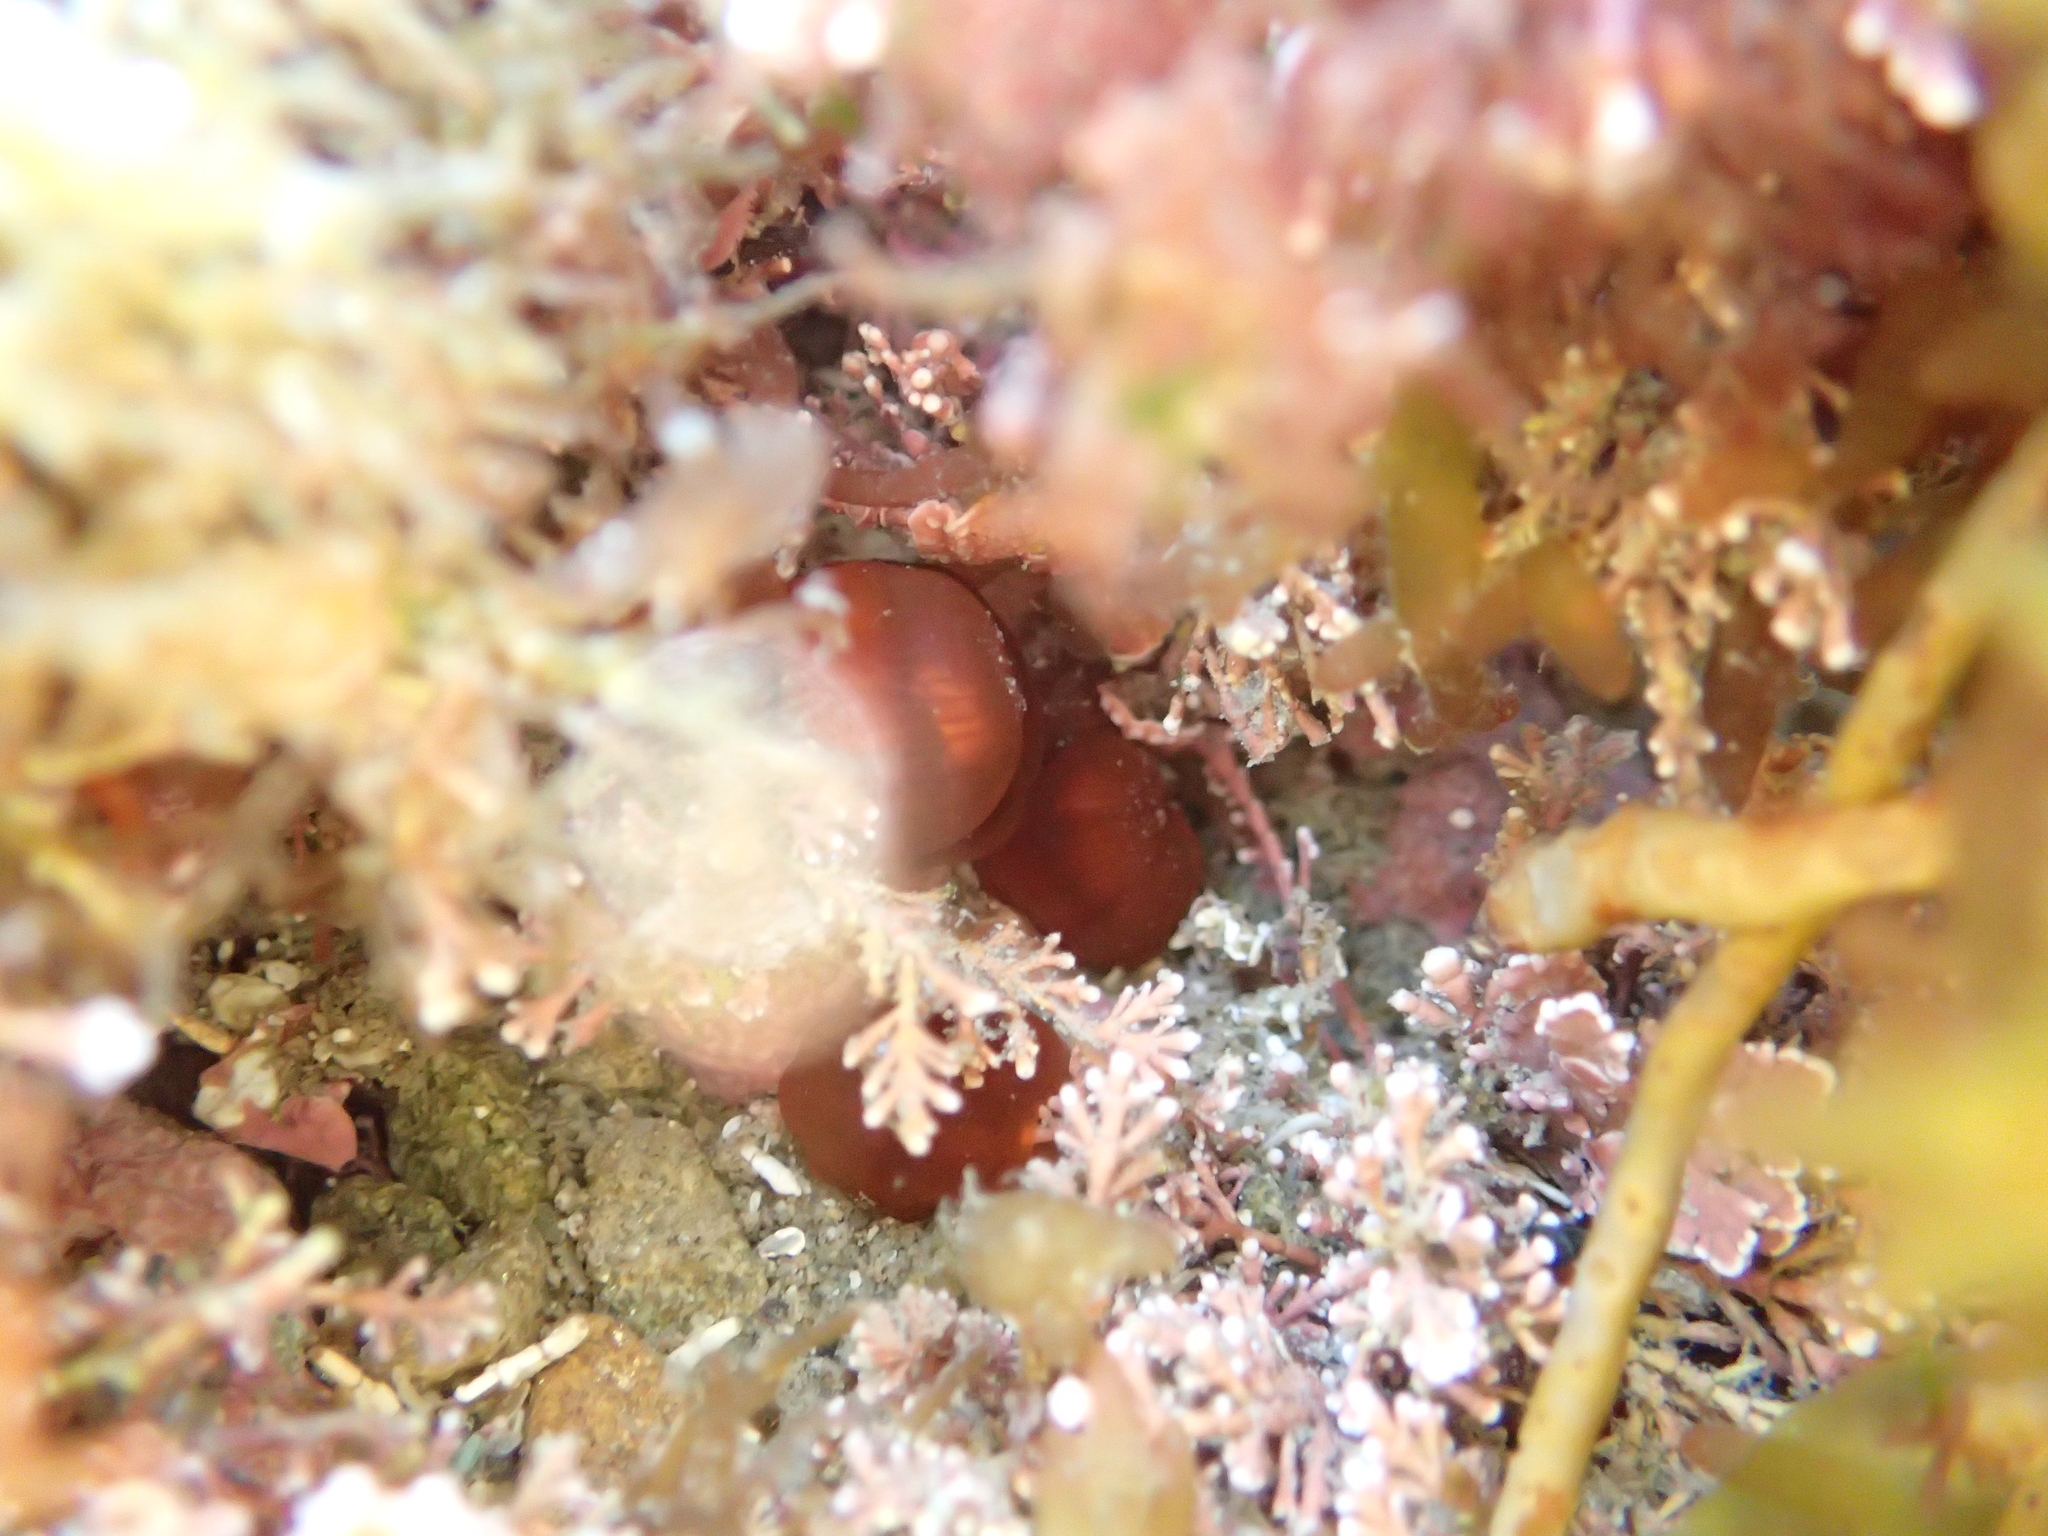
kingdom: Animalia
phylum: Cnidaria
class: Anthozoa
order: Corallimorpharia
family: Corallimorphidae
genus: Corynactis
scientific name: Corynactis australis
